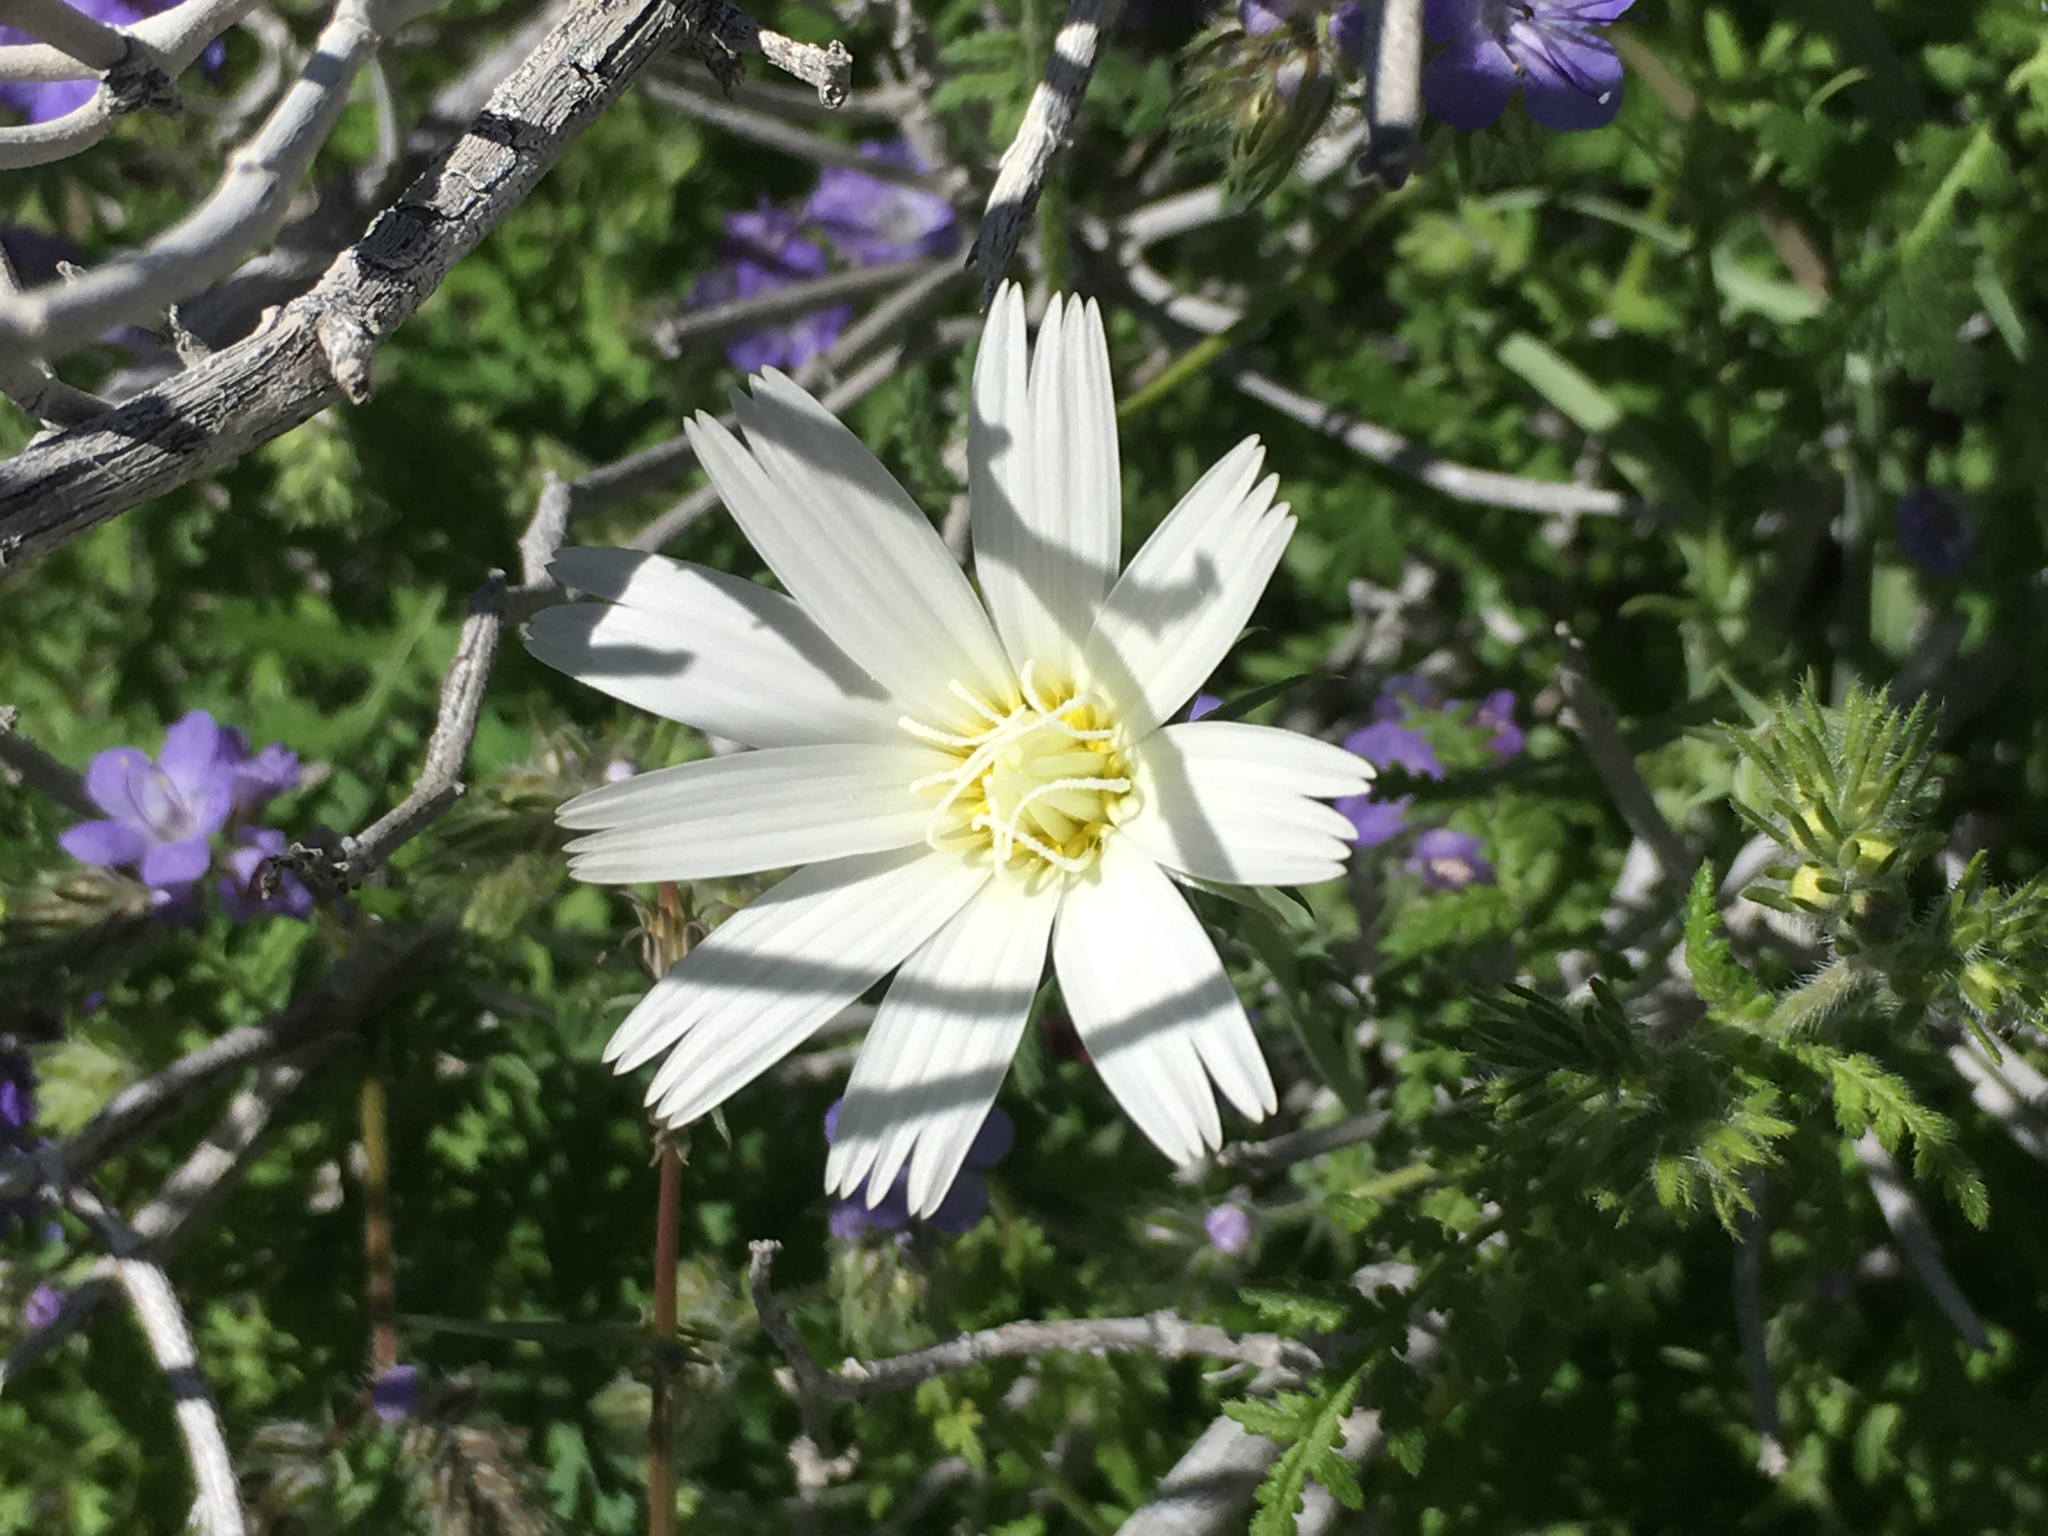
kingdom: Plantae
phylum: Tracheophyta
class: Magnoliopsida
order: Asterales
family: Asteraceae
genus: Rafinesquia
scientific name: Rafinesquia neomexicana
